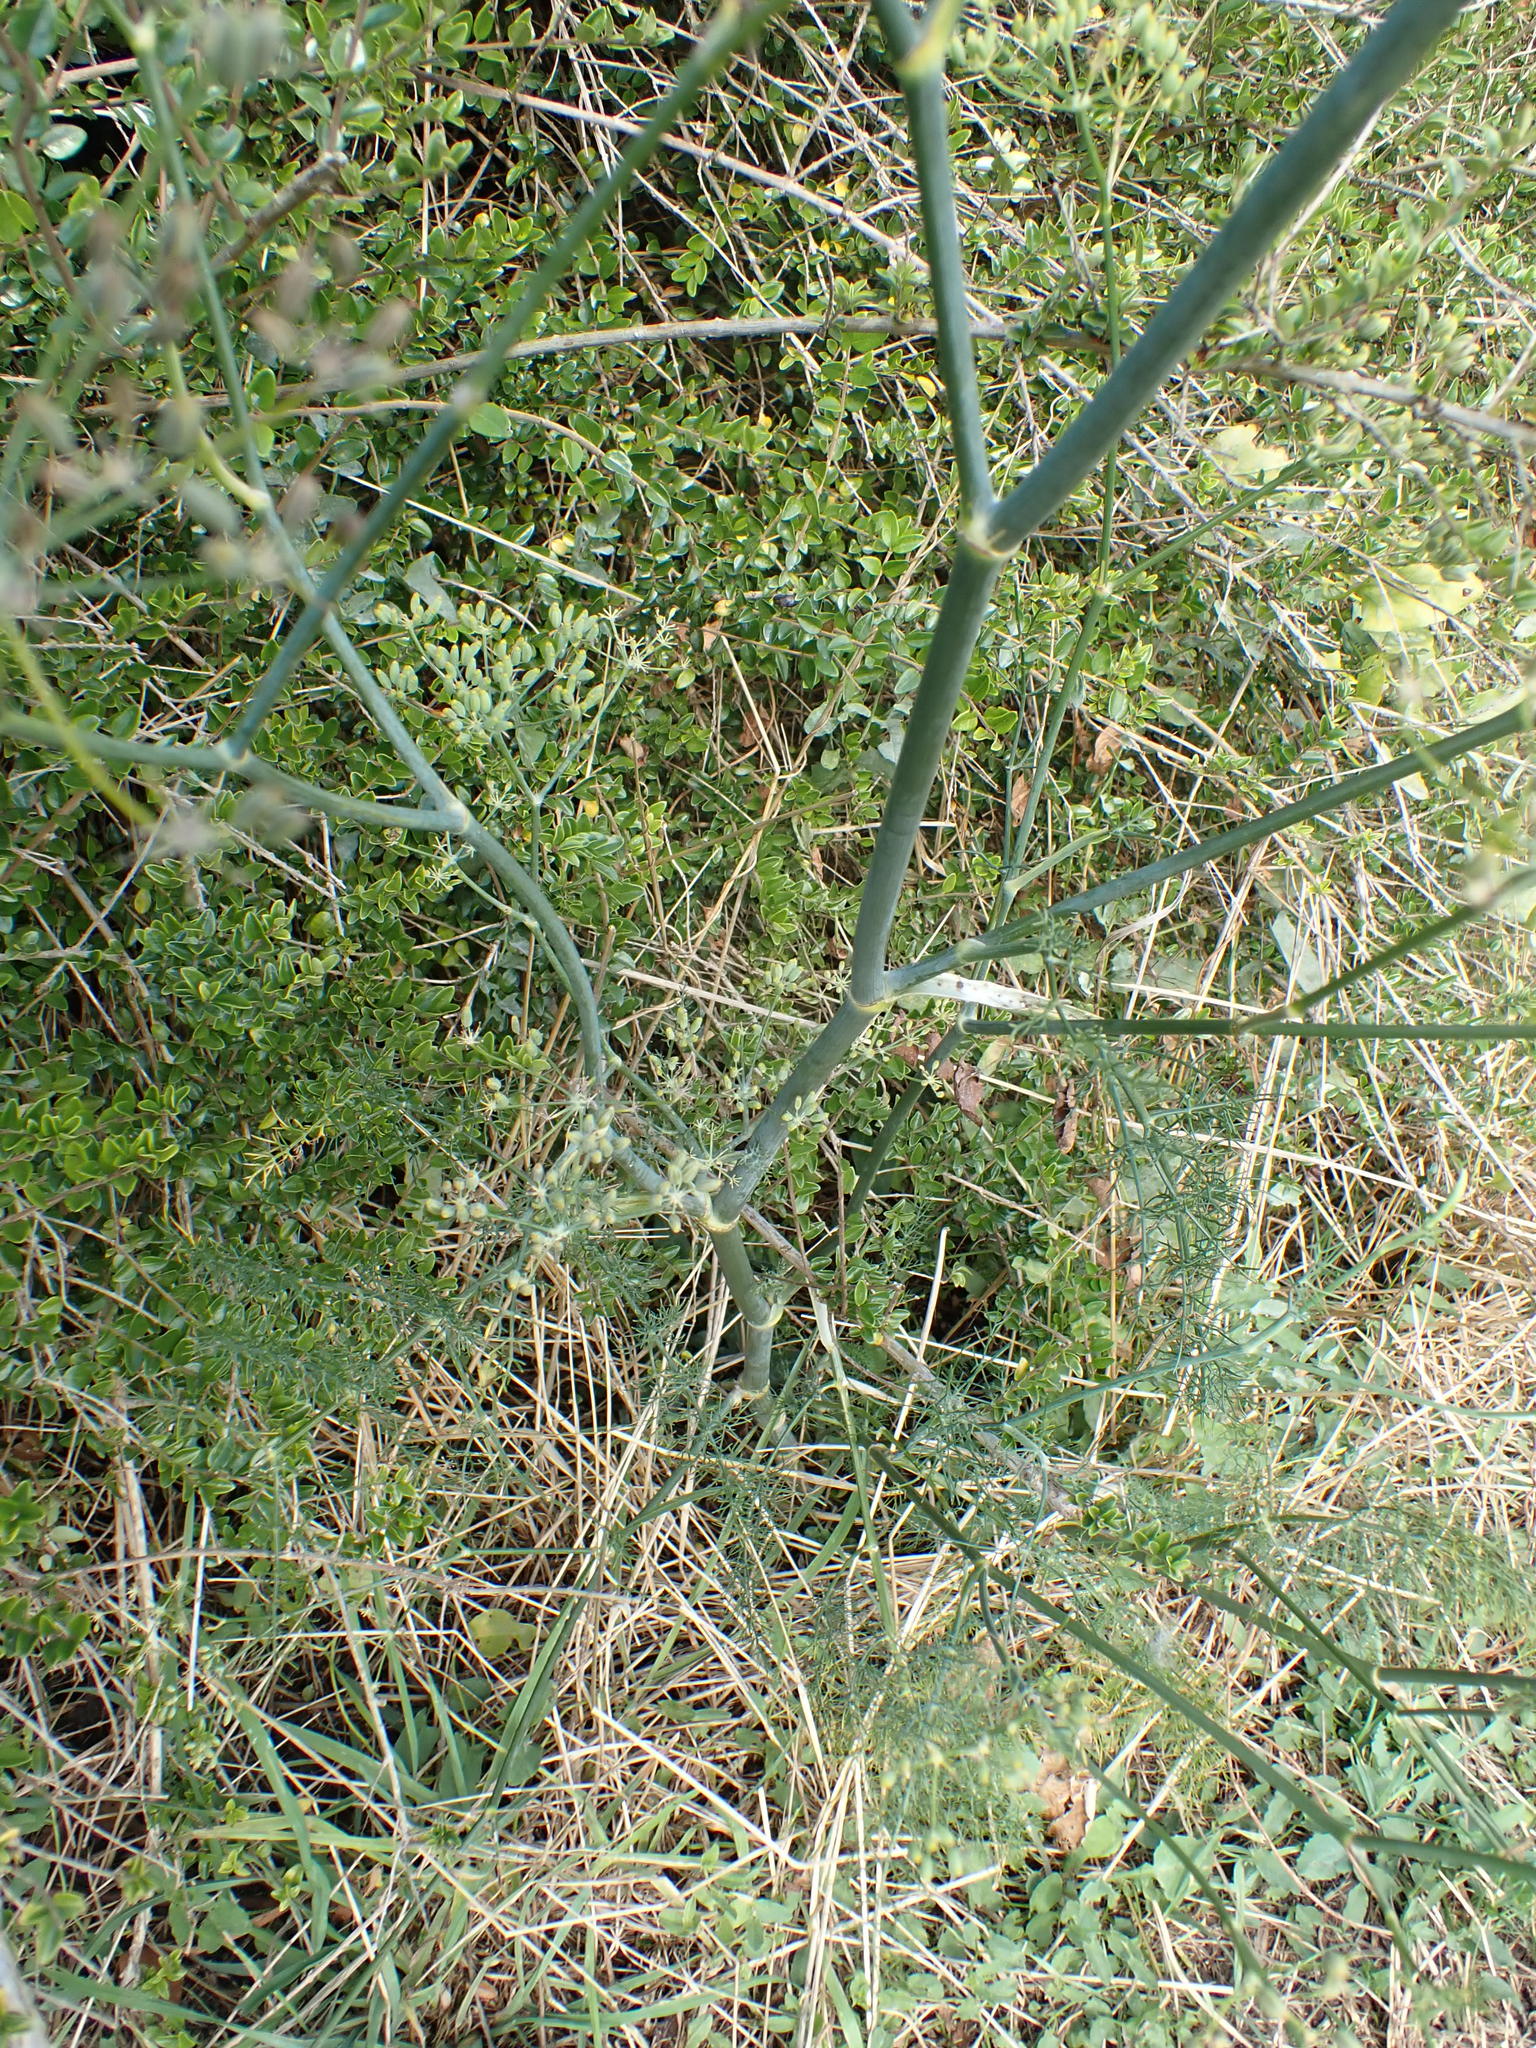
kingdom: Plantae
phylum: Tracheophyta
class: Magnoliopsida
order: Apiales
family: Apiaceae
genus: Foeniculum
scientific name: Foeniculum vulgare
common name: Fennel
